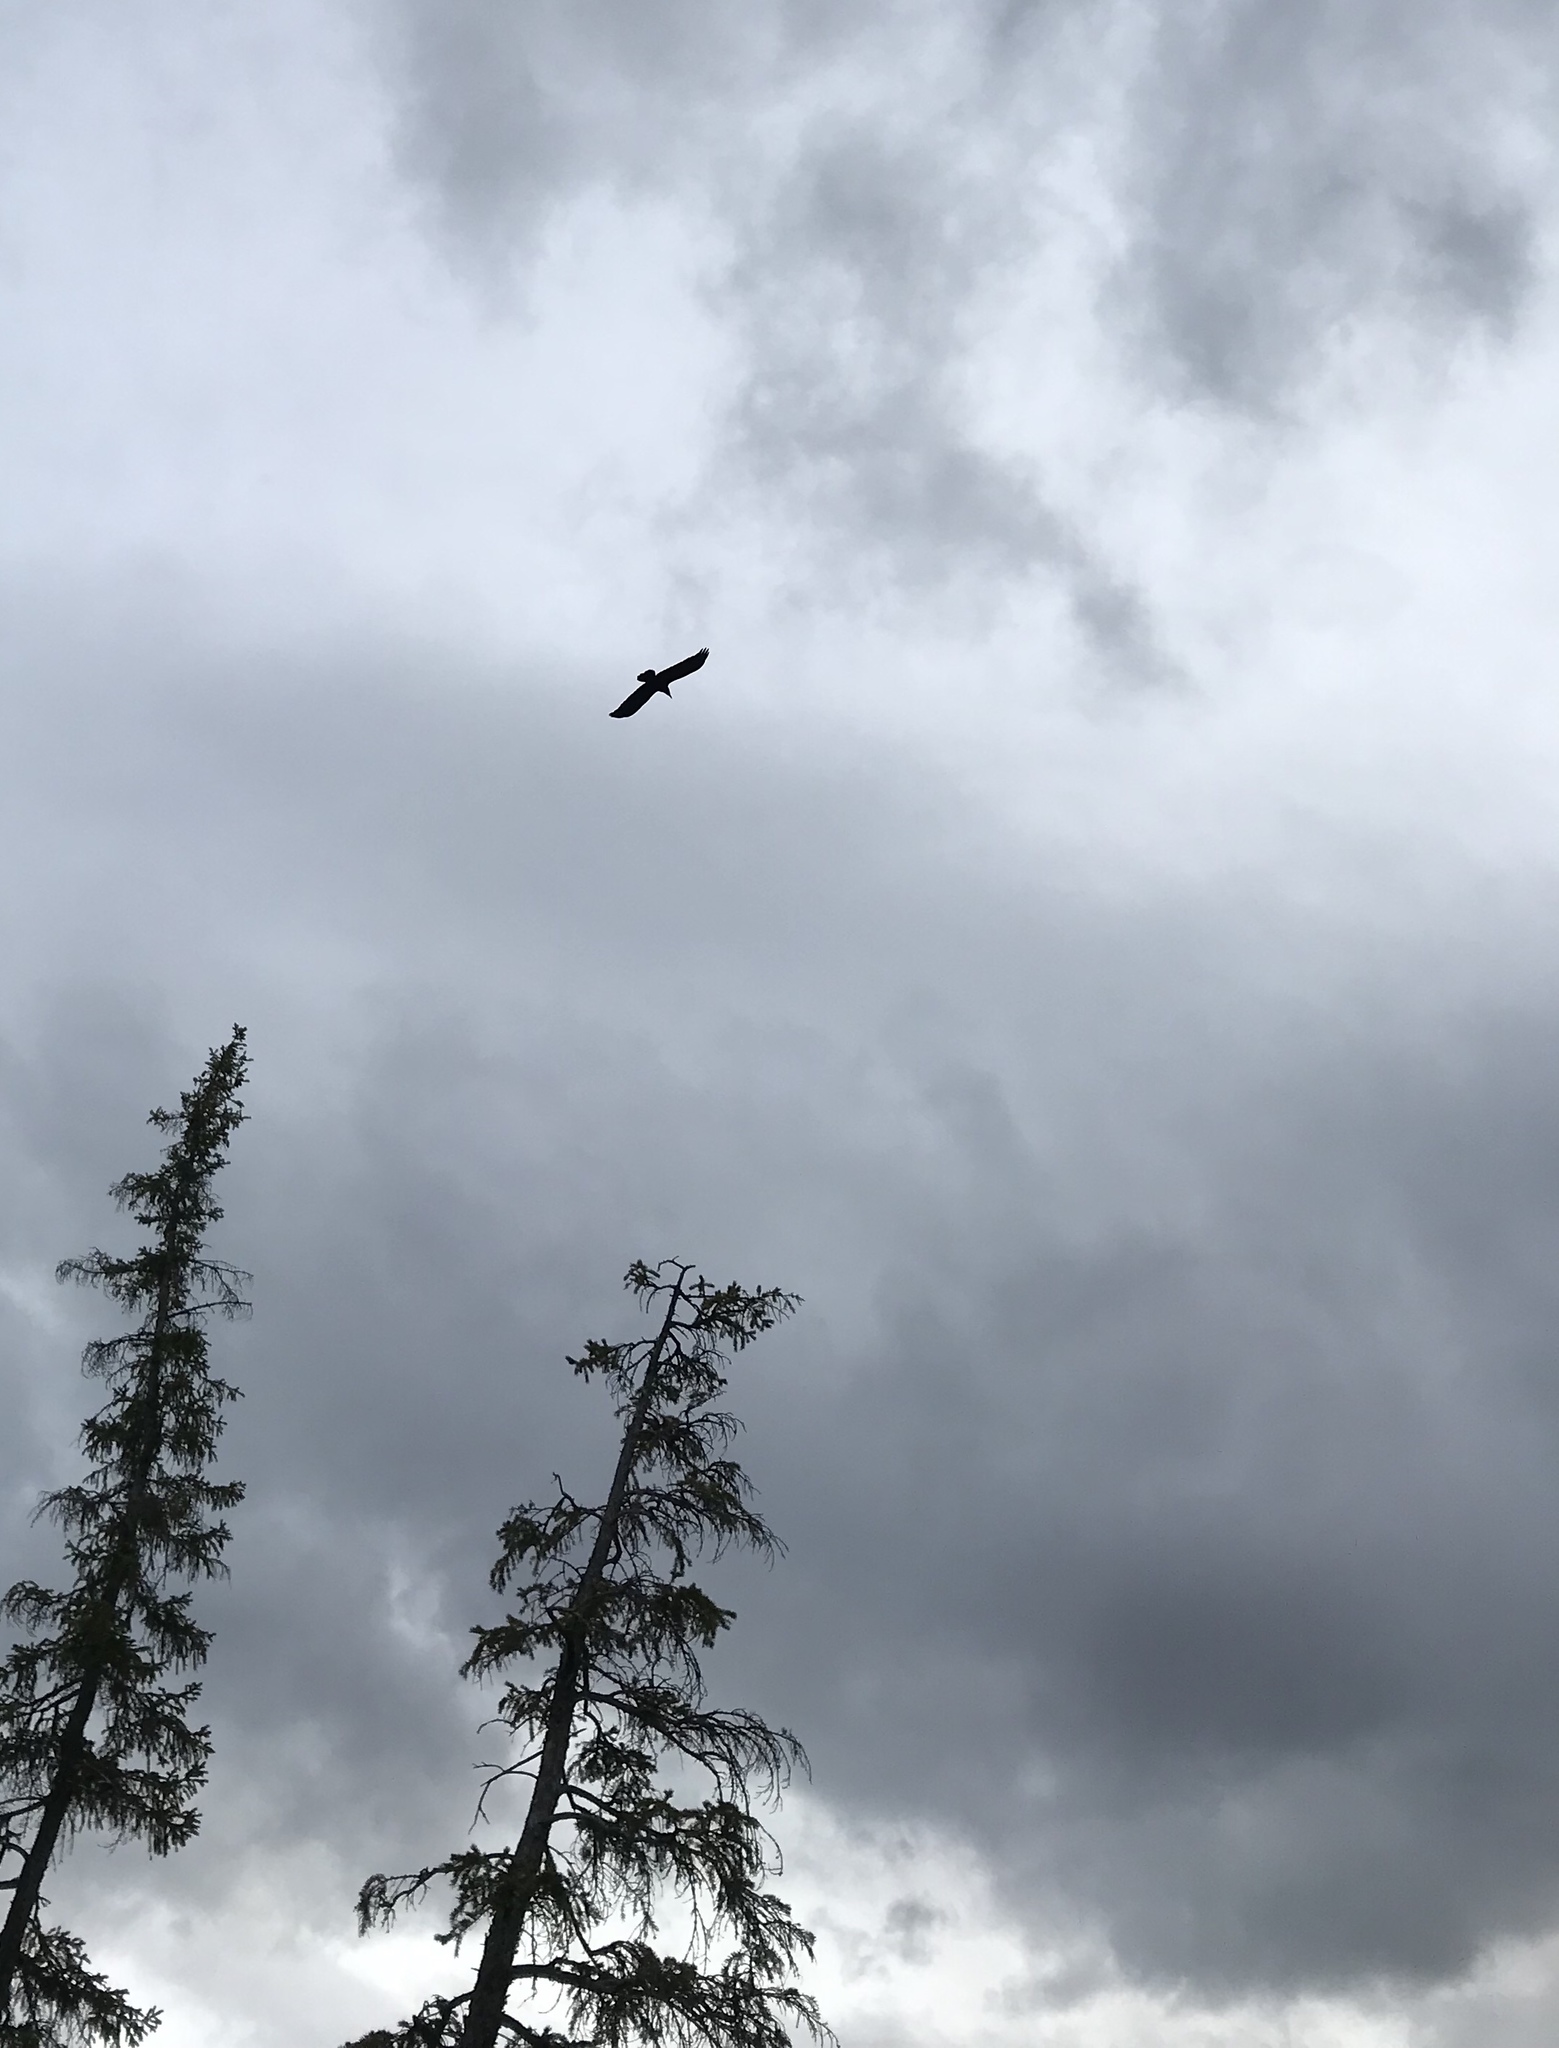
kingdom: Animalia
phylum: Chordata
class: Aves
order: Passeriformes
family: Corvidae
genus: Corvus
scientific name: Corvus brachyrhynchos
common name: American crow
